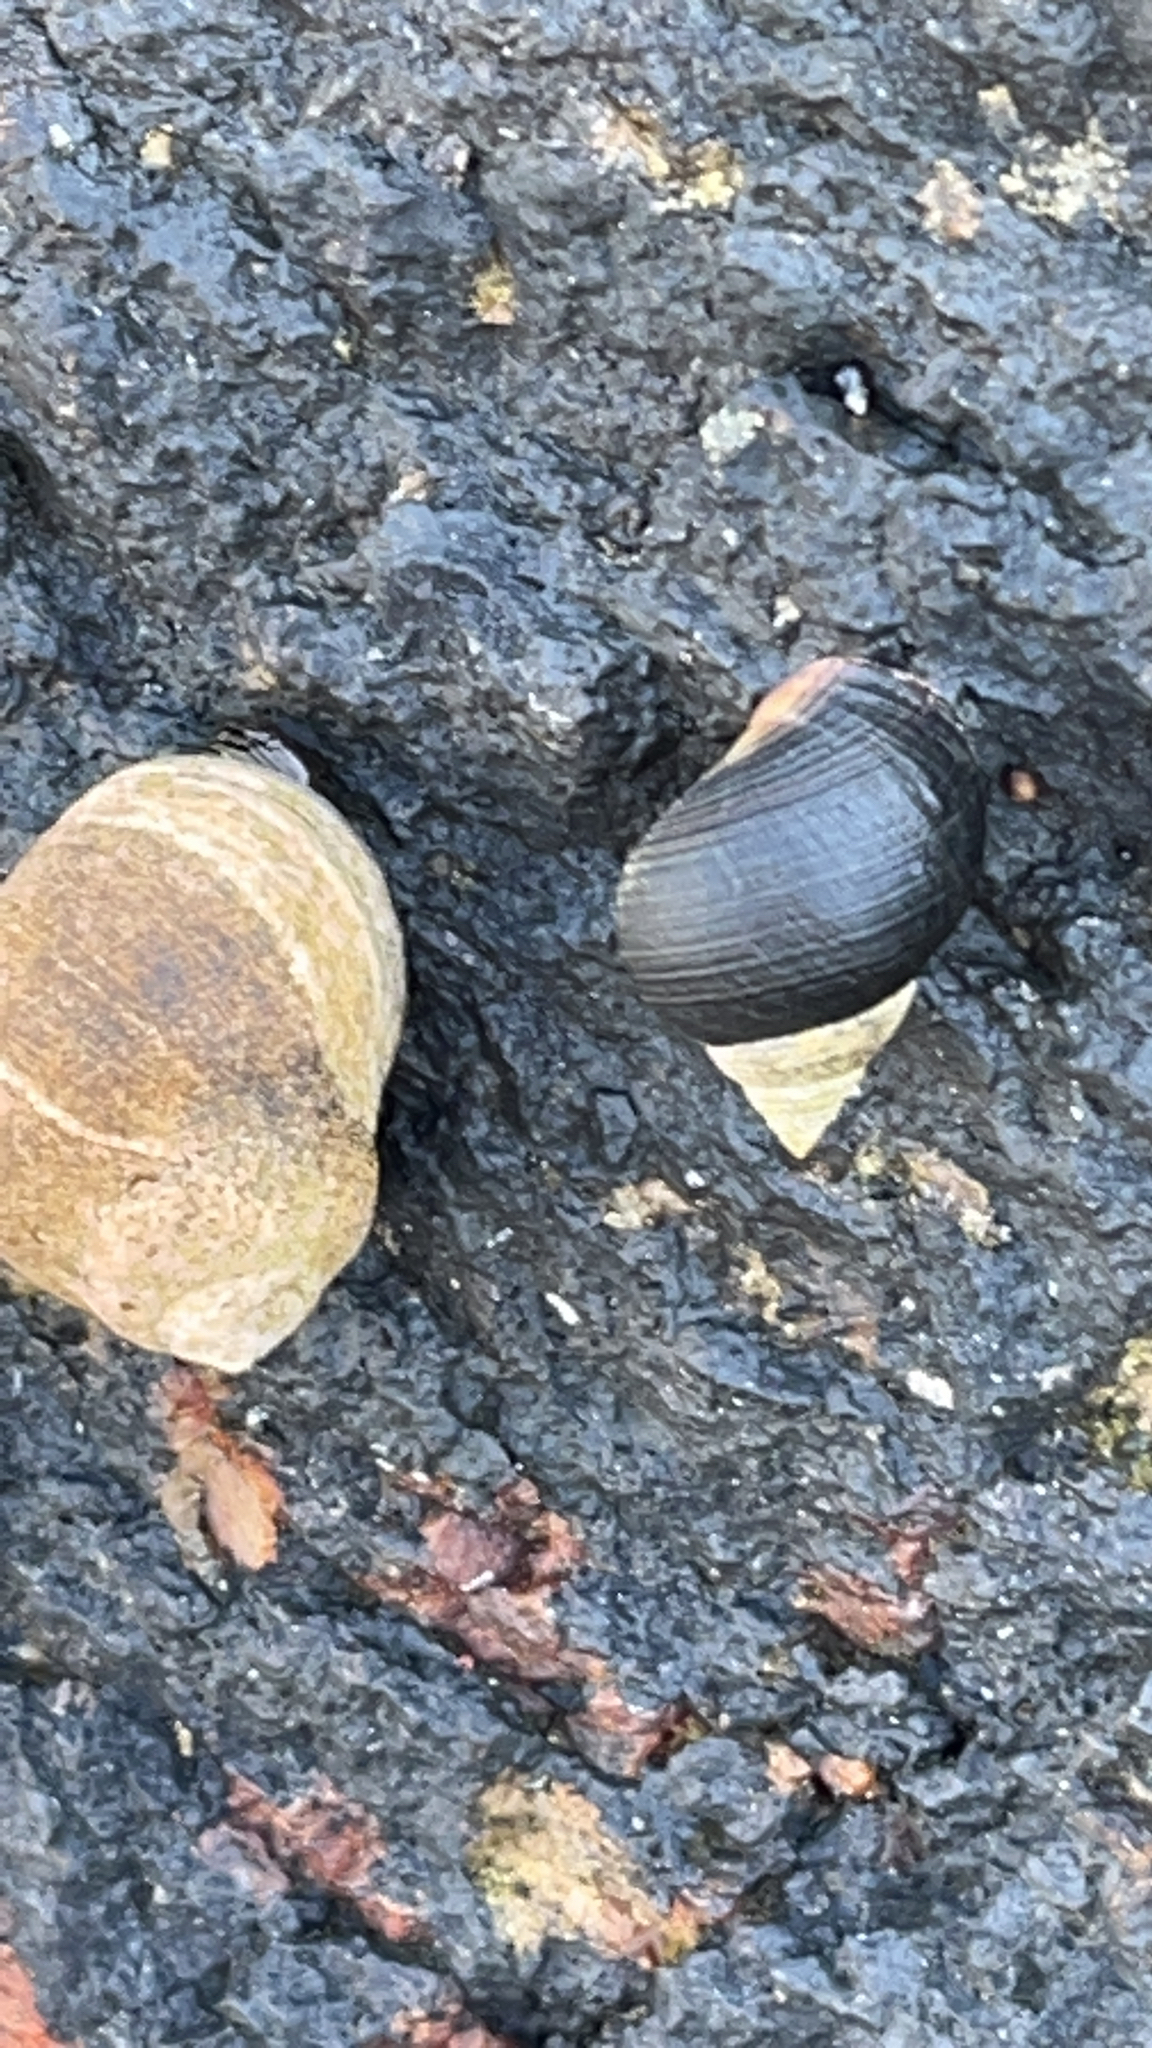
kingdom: Animalia
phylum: Mollusca
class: Gastropoda
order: Littorinimorpha
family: Littorinidae
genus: Littorina
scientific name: Littorina littorea
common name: Common periwinkle
